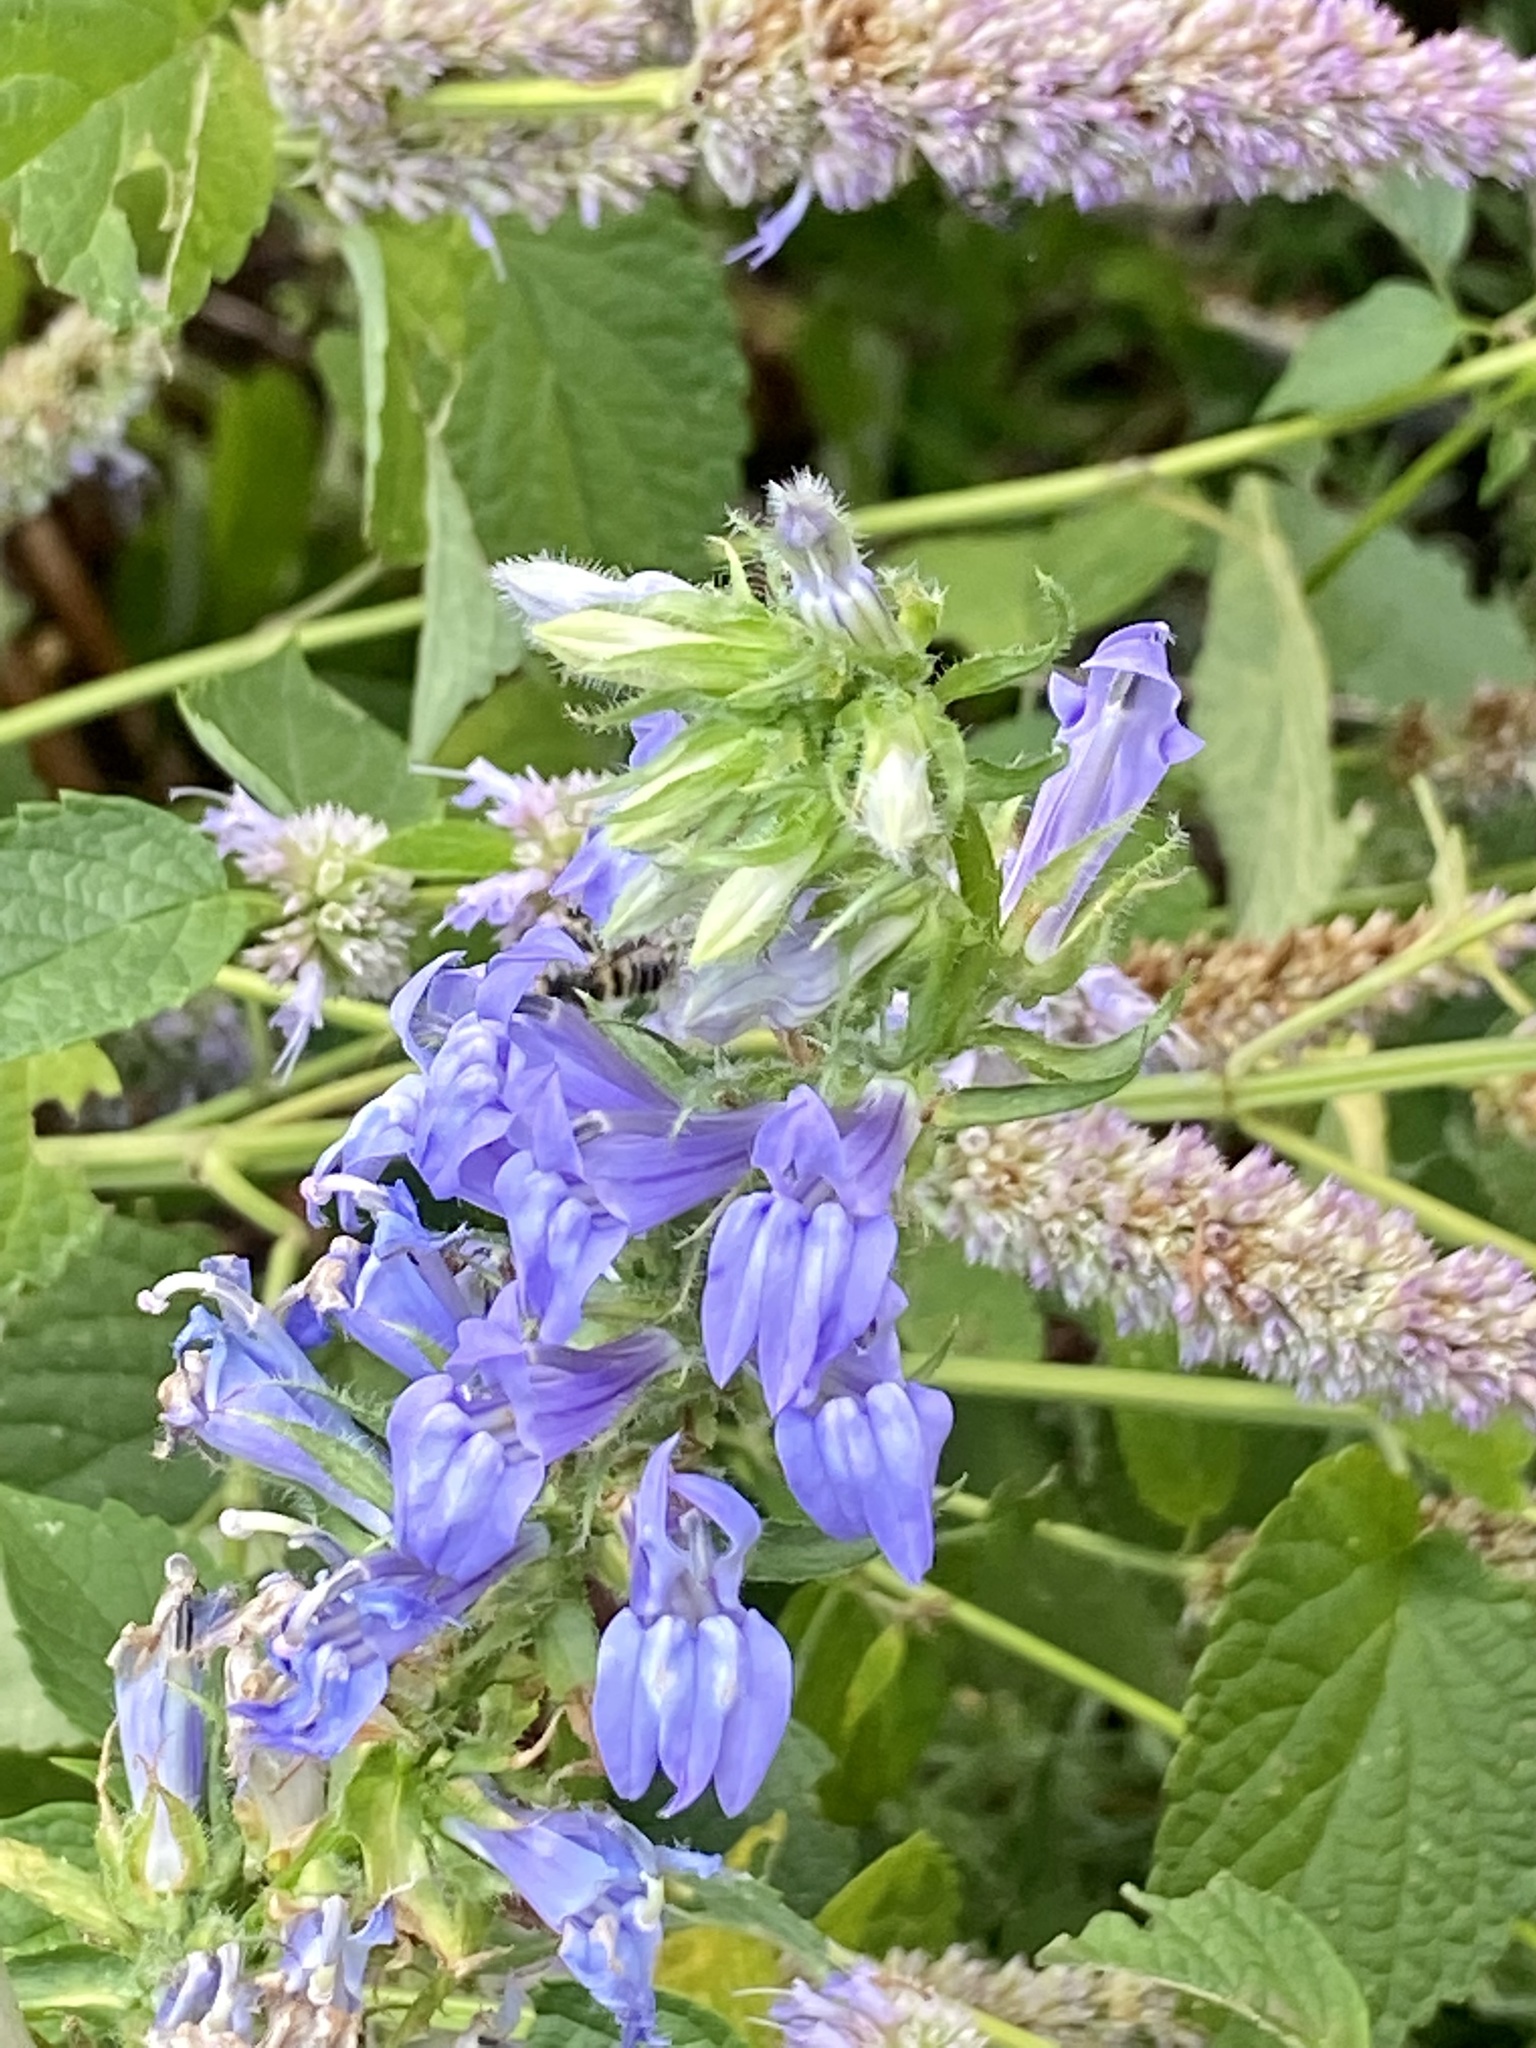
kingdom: Plantae
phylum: Tracheophyta
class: Magnoliopsida
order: Asterales
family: Campanulaceae
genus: Lobelia
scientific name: Lobelia siphilitica
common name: Great lobelia
